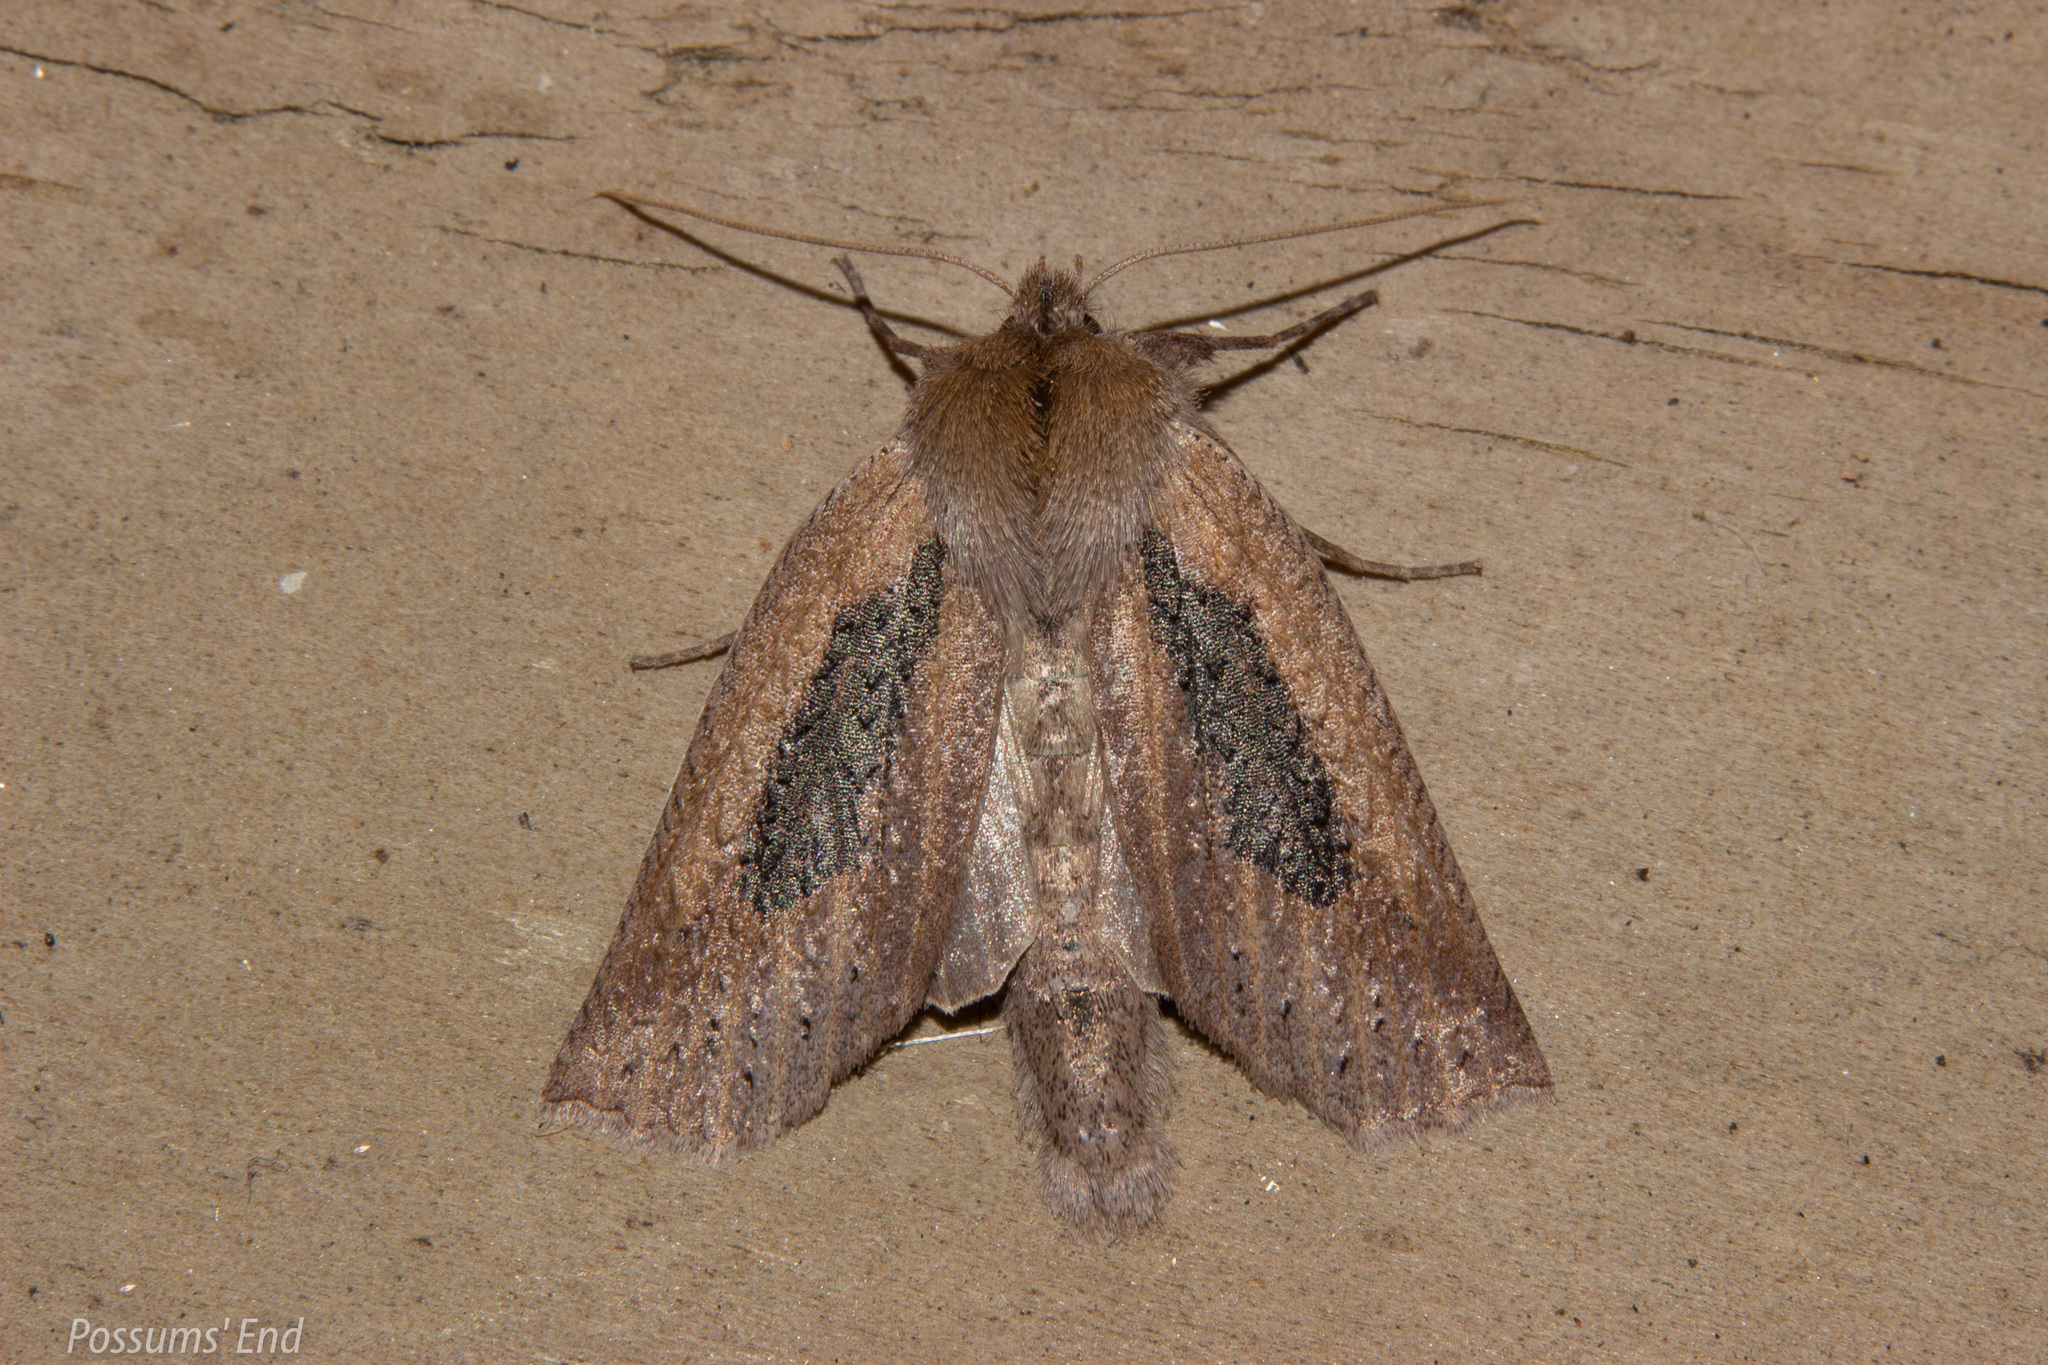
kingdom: Animalia
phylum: Arthropoda
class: Insecta
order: Lepidoptera
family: Geometridae
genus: Declana
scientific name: Declana leptomera
